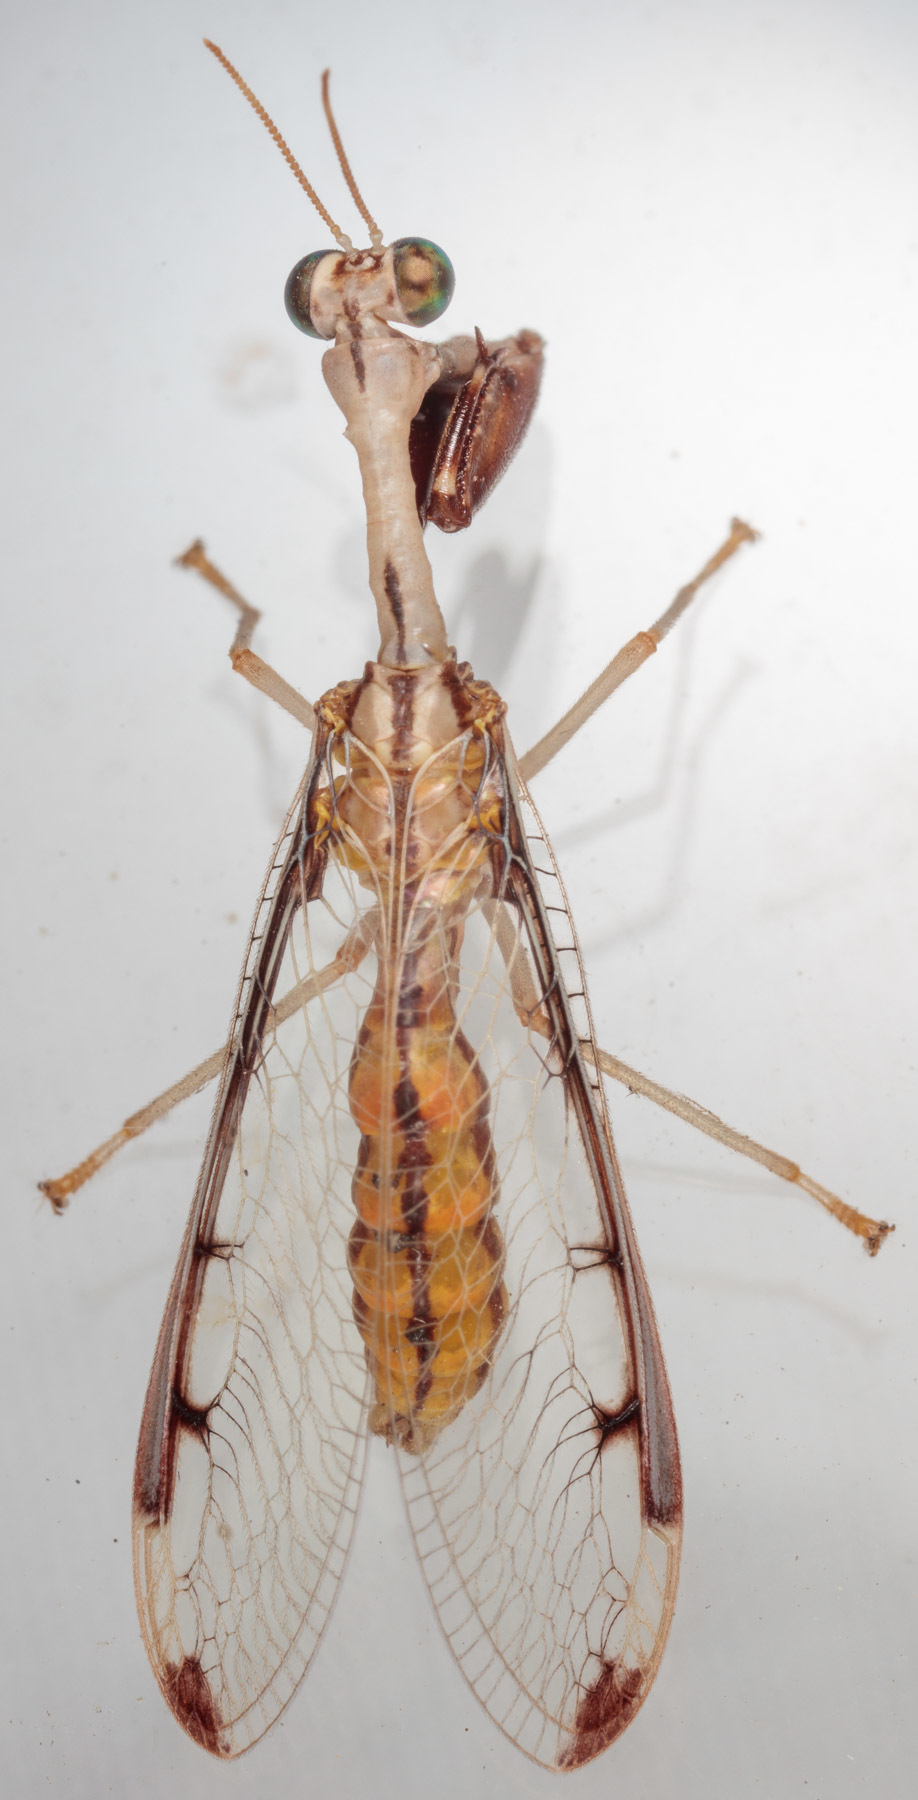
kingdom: Animalia
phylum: Arthropoda
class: Insecta
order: Neuroptera
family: Mantispidae
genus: Dicromantispa
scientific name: Dicromantispa interrupta
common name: Four-spotted mantidfly
